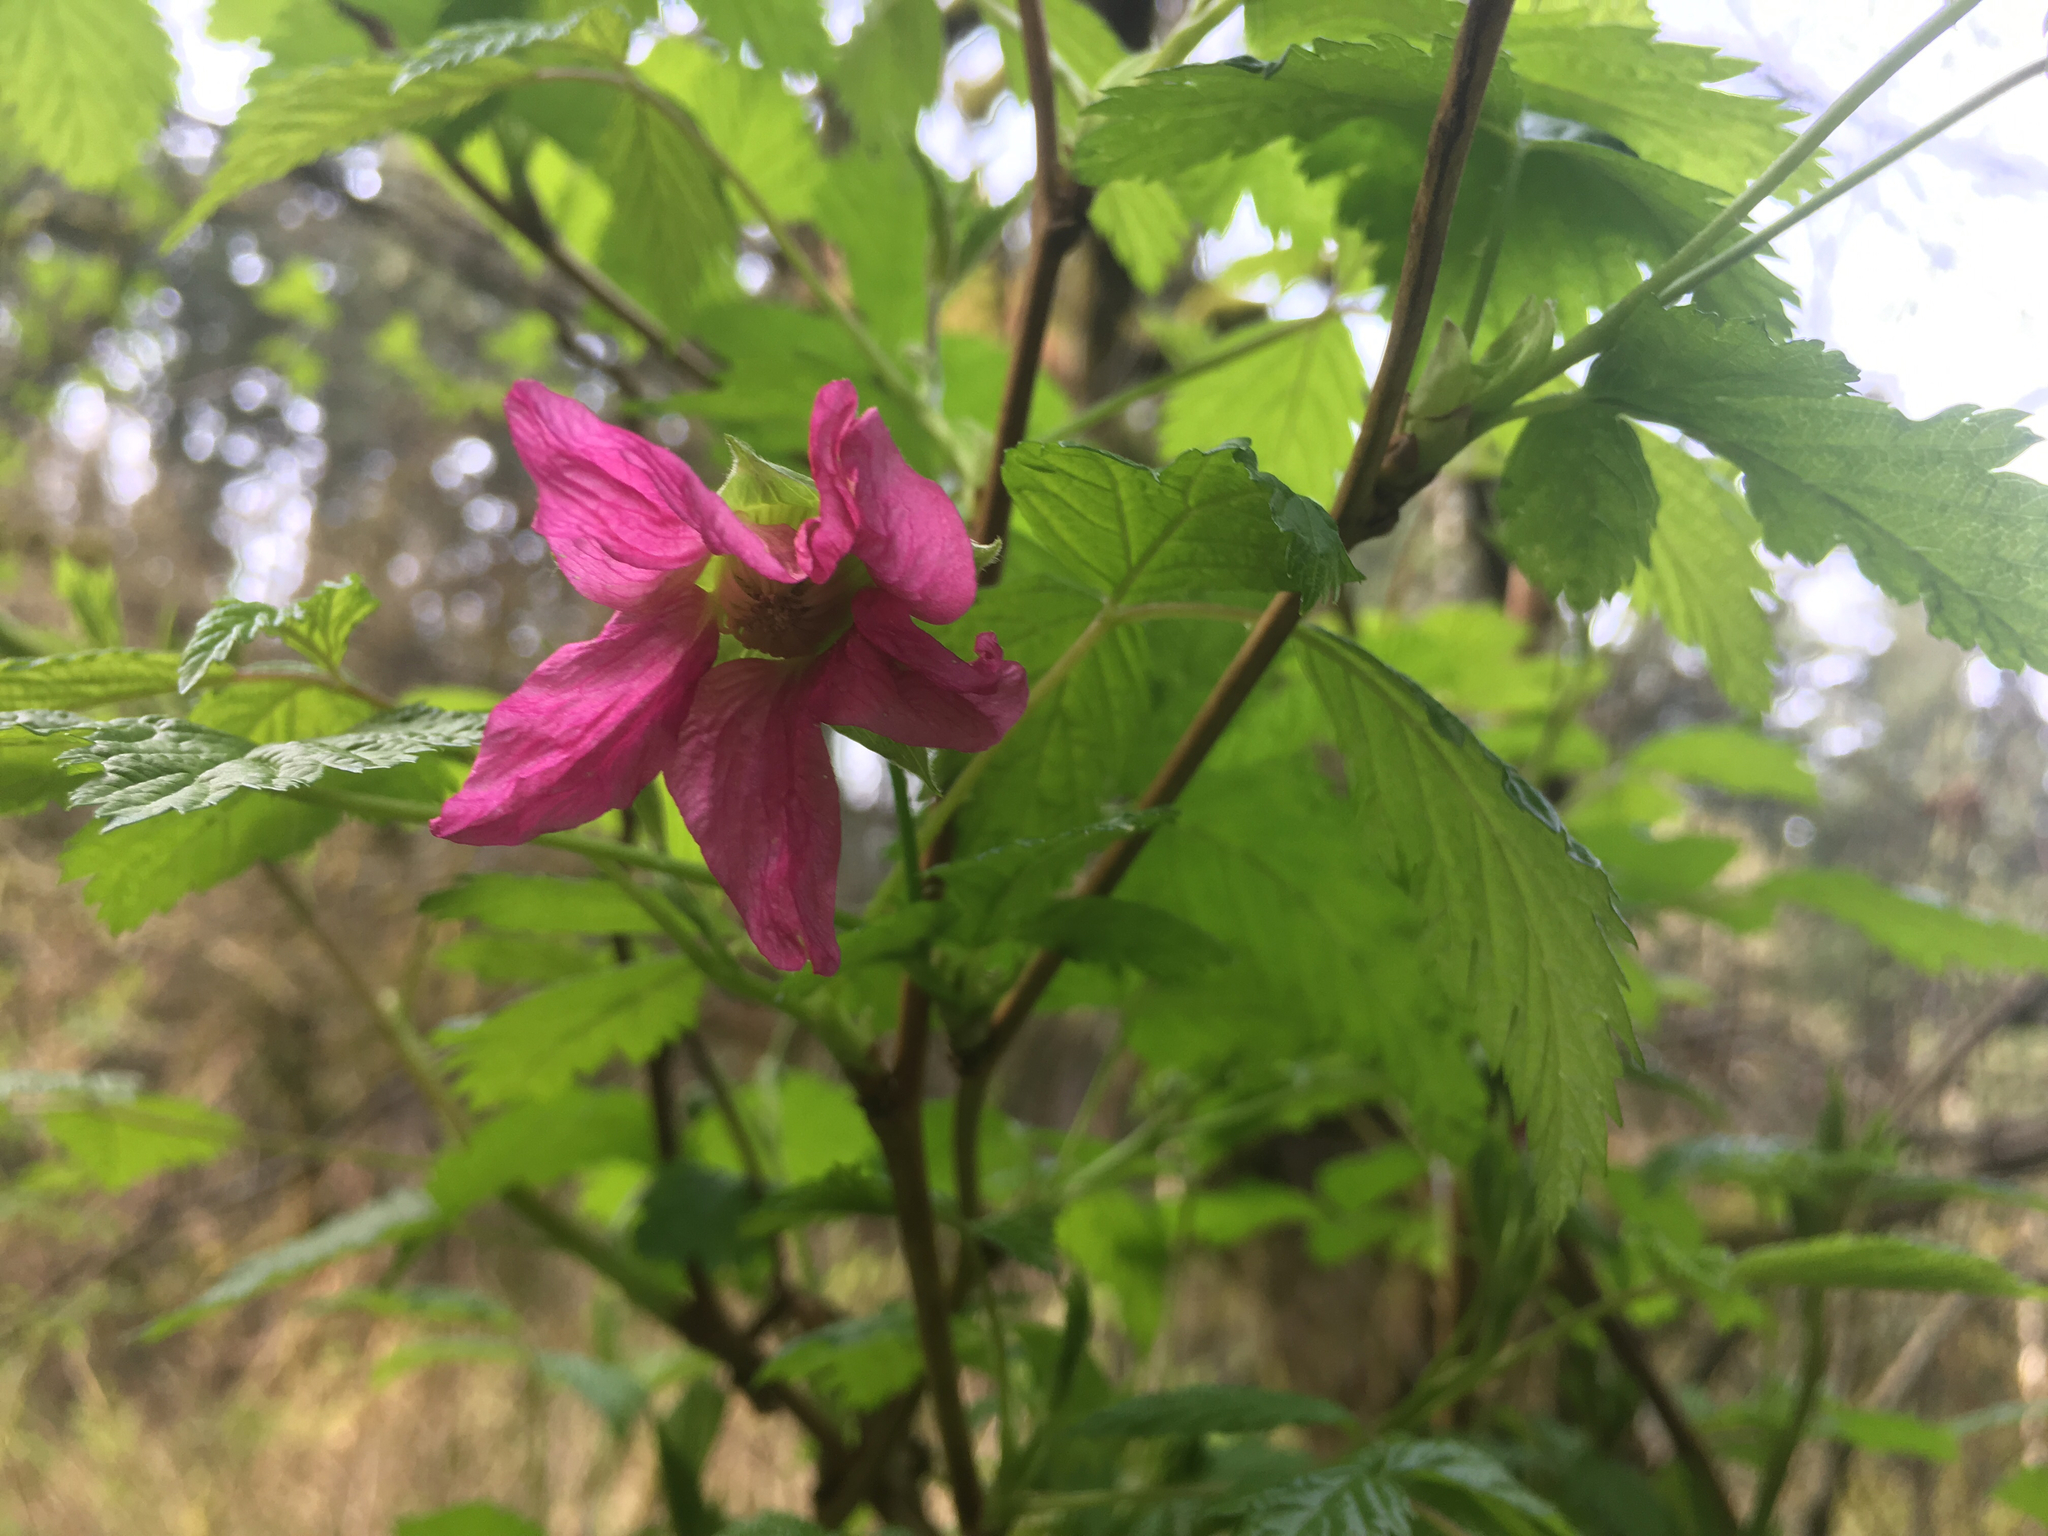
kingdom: Plantae
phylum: Tracheophyta
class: Magnoliopsida
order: Rosales
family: Rosaceae
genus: Rubus
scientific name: Rubus spectabilis
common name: Salmonberry
